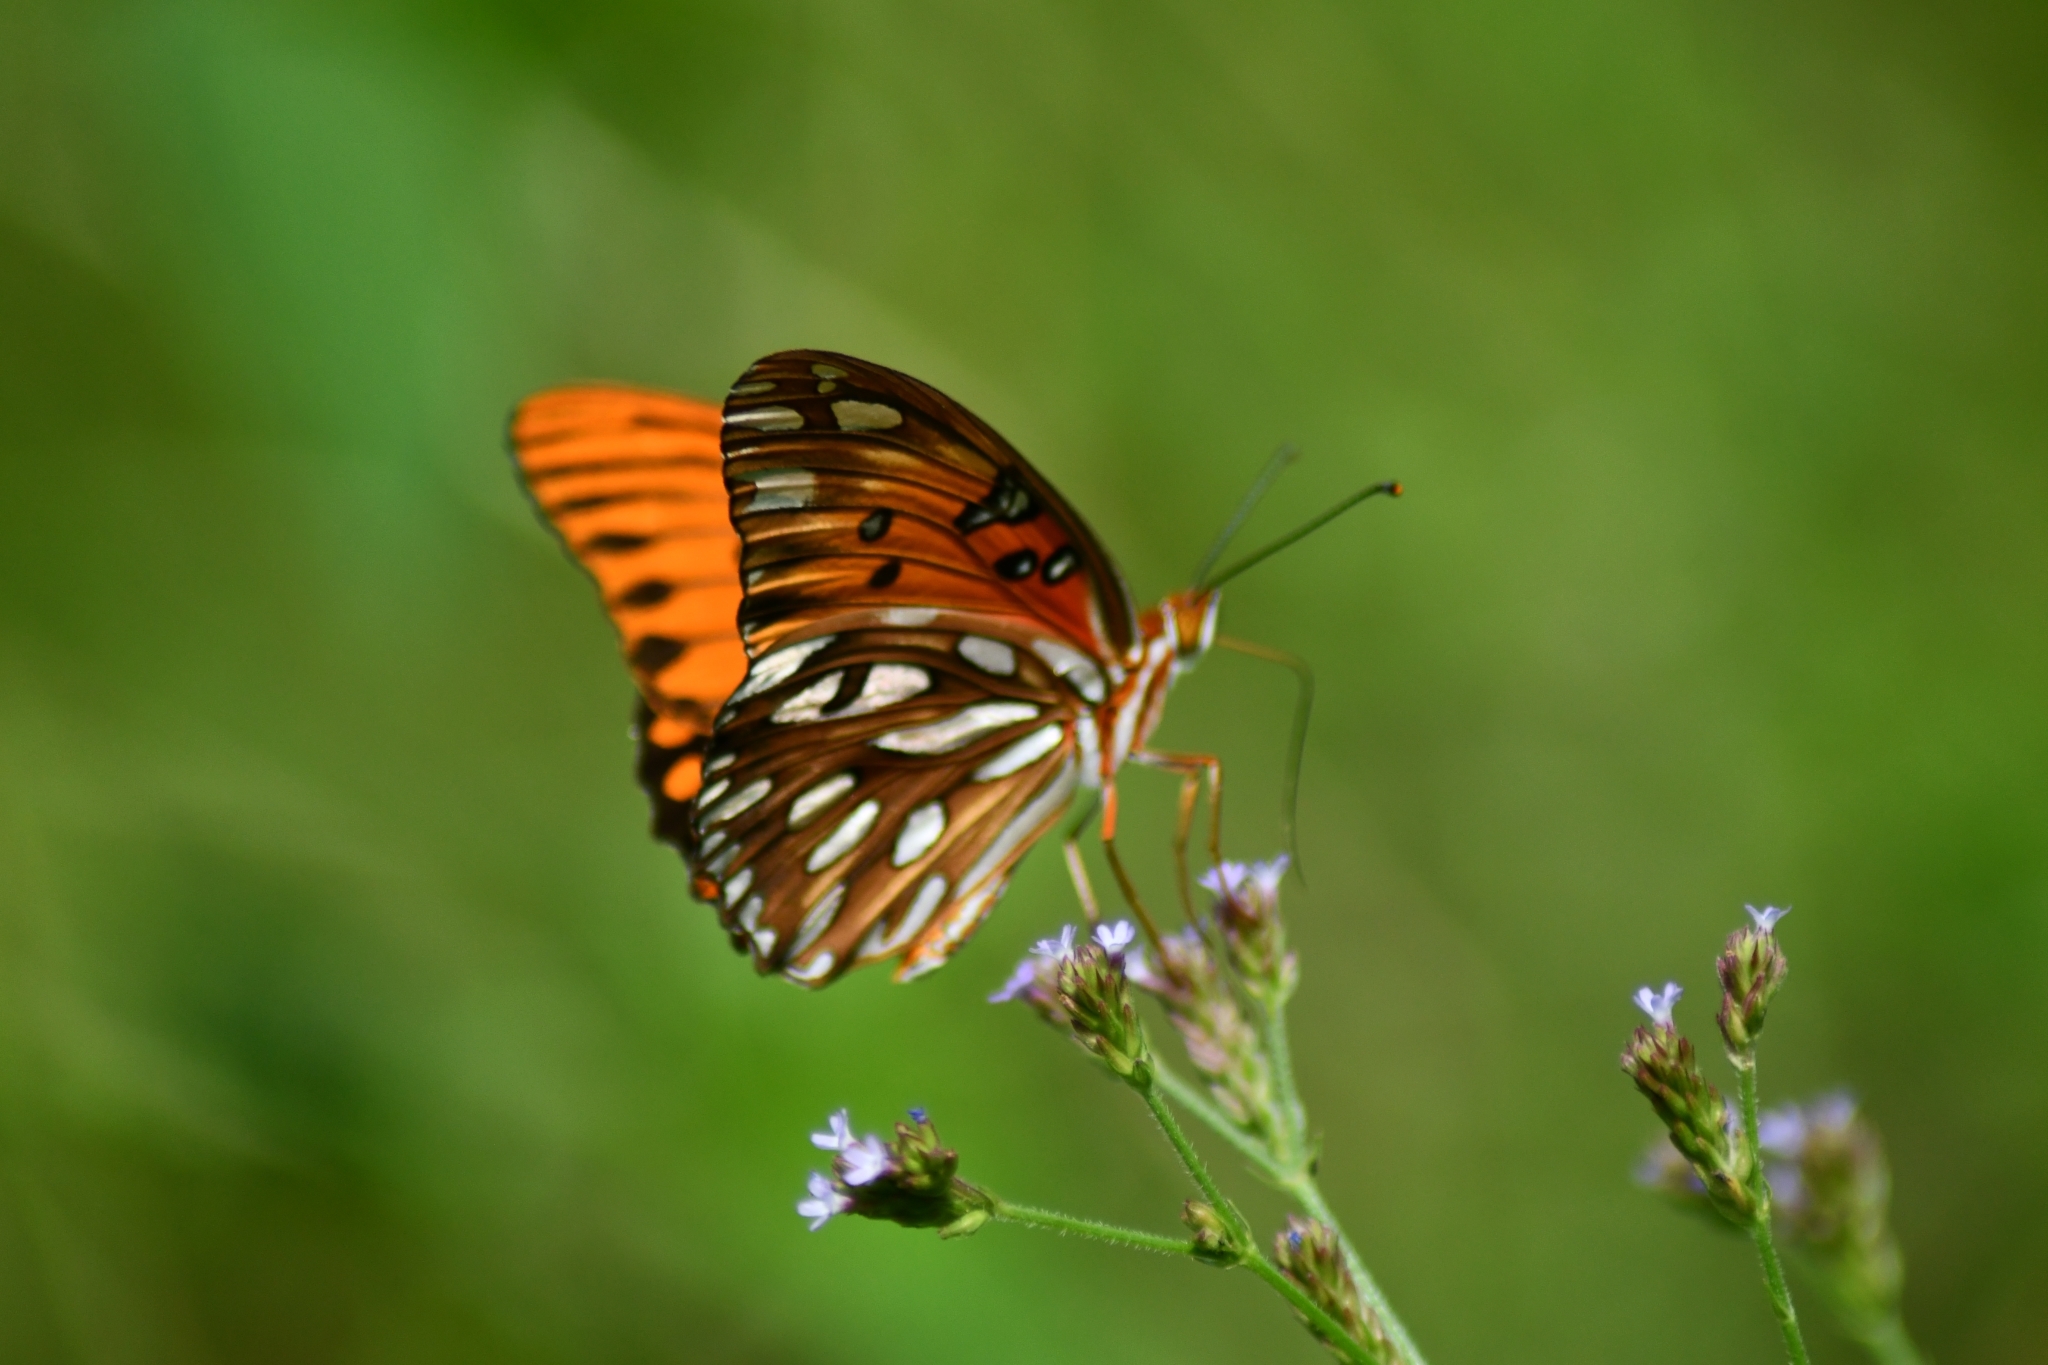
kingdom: Animalia
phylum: Arthropoda
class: Insecta
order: Lepidoptera
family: Nymphalidae
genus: Dione
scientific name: Dione vanillae
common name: Gulf fritillary
